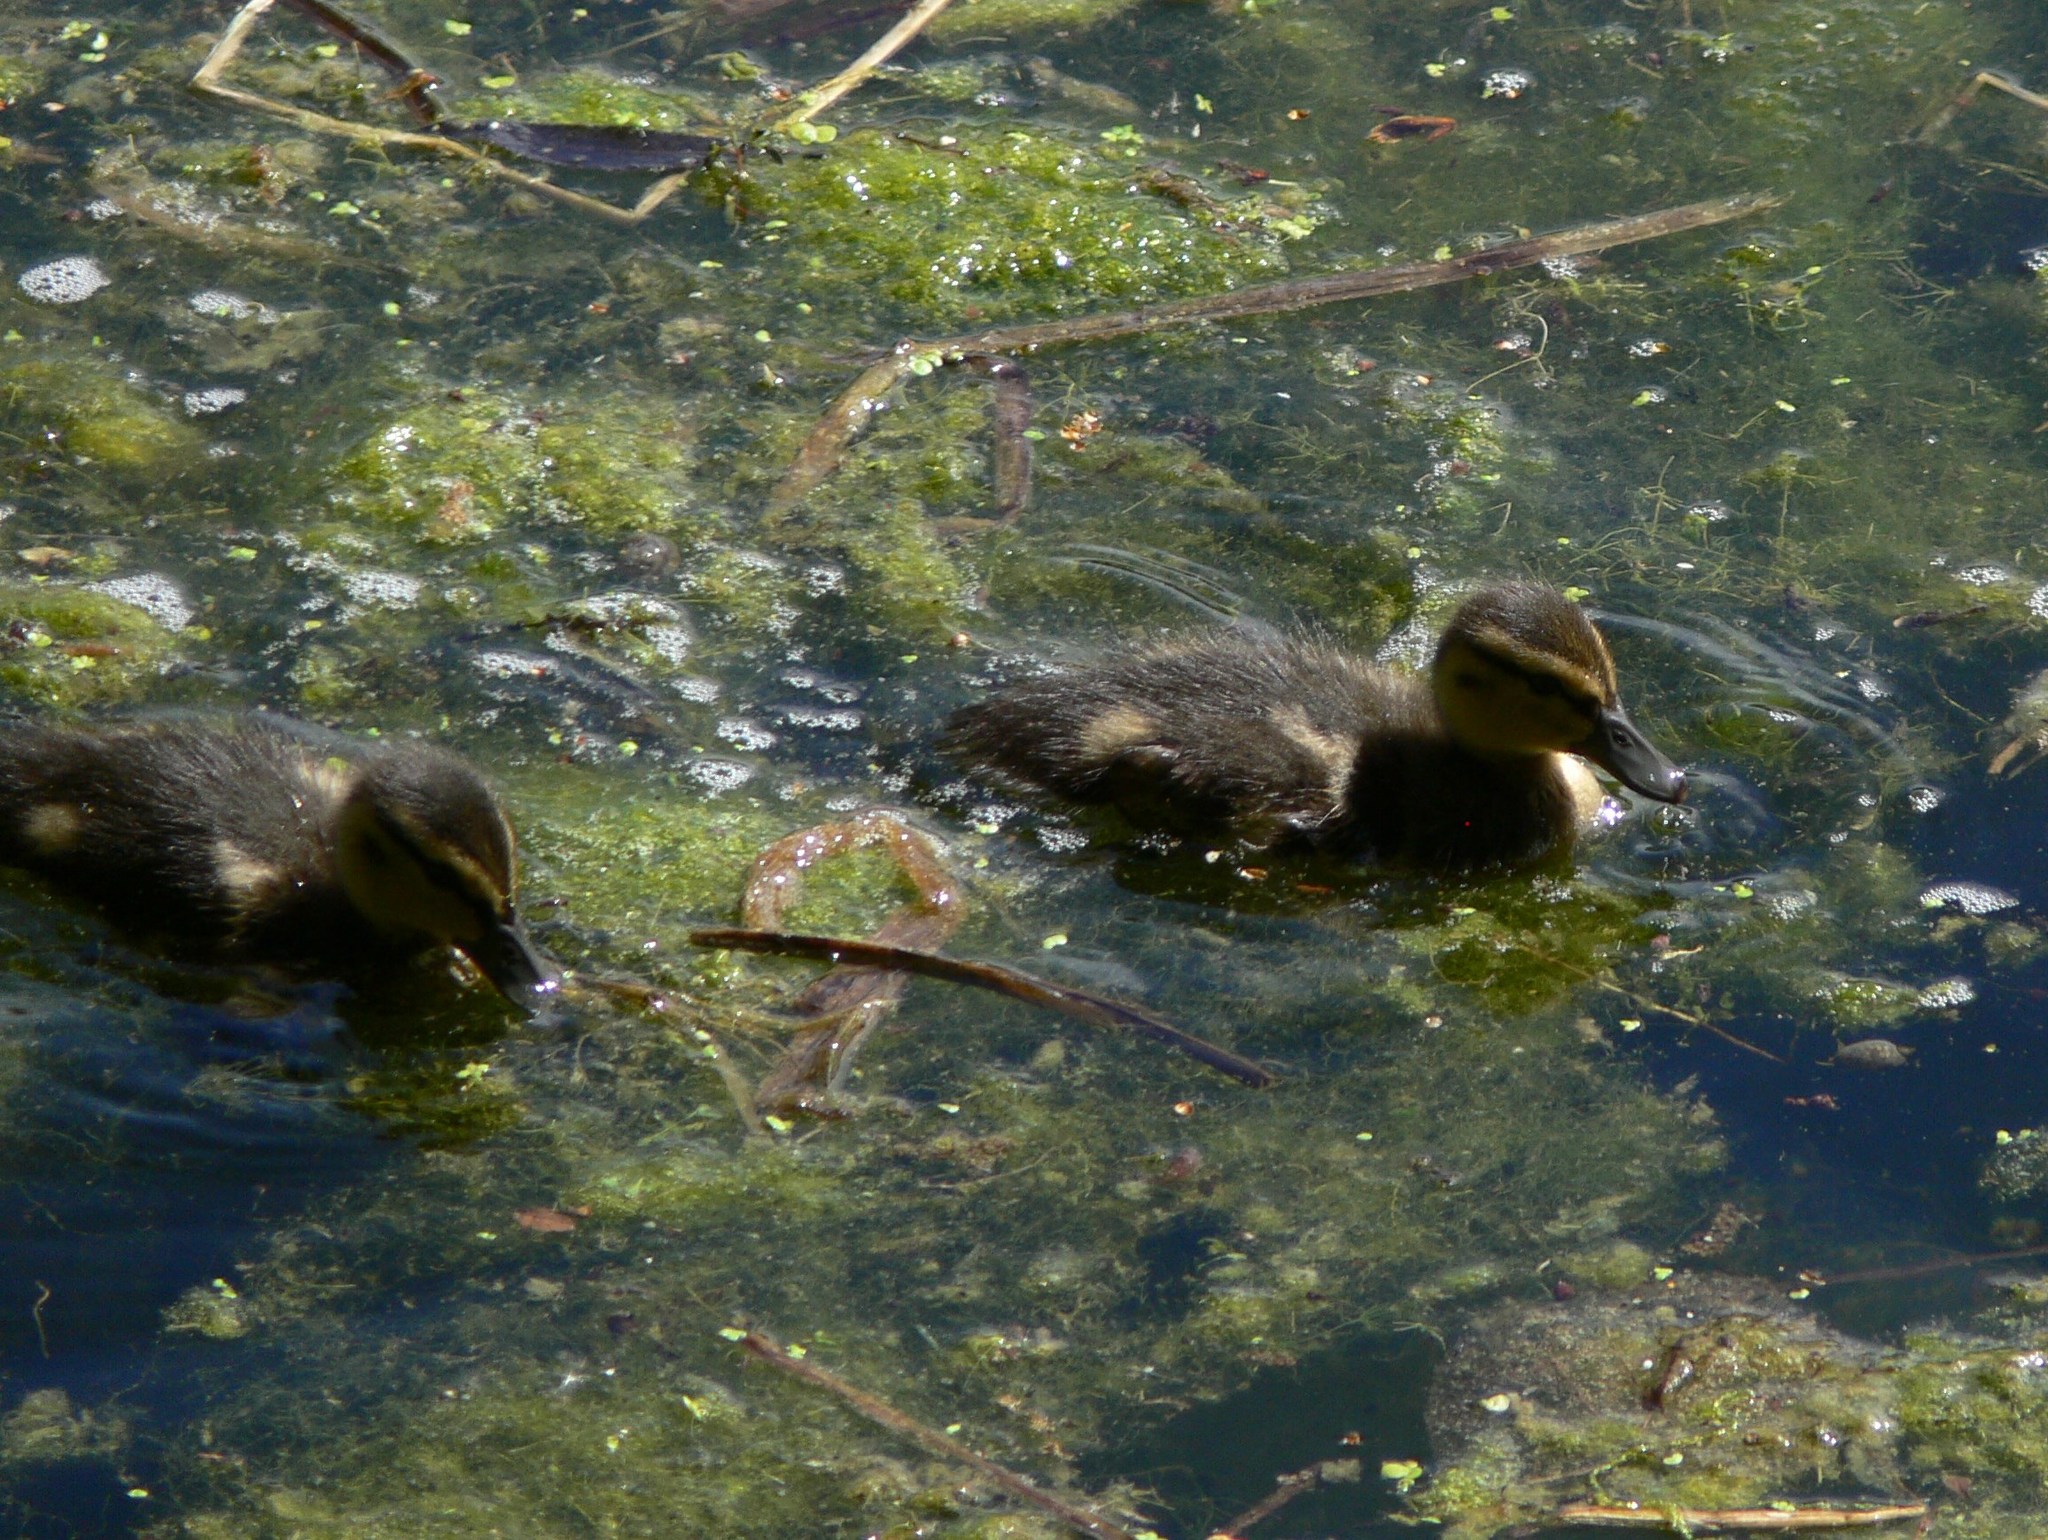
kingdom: Animalia
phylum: Chordata
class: Aves
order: Anseriformes
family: Anatidae
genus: Anas
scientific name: Anas platyrhynchos
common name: Mallard
